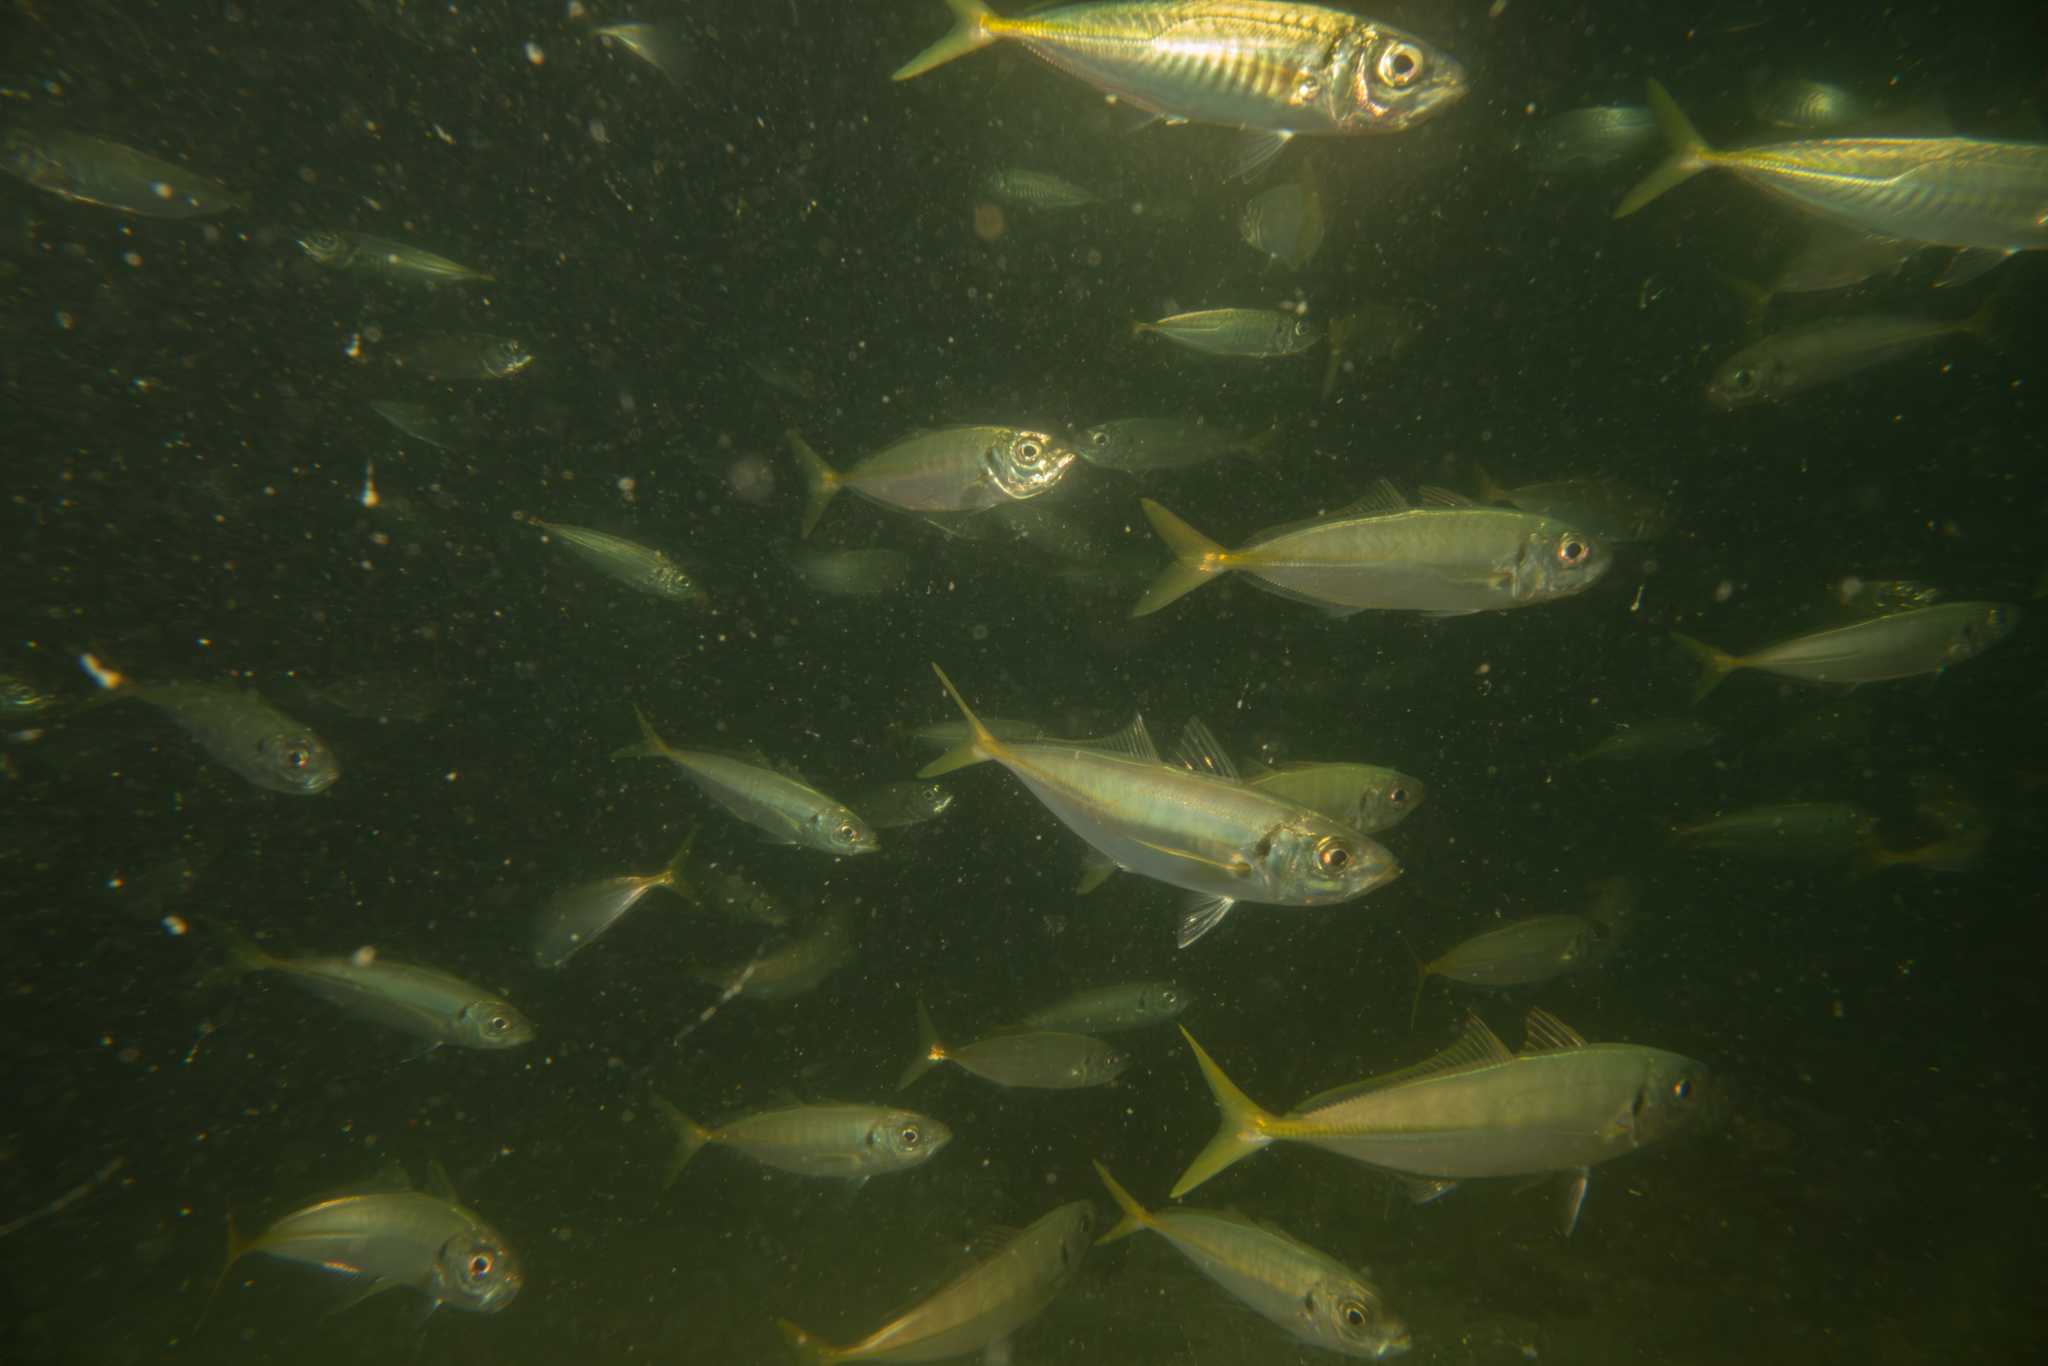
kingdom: Animalia
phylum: Chordata
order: Perciformes
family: Carangidae
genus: Trachurus
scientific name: Trachurus novaezelandiae
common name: Yellowtail horse mackerel
